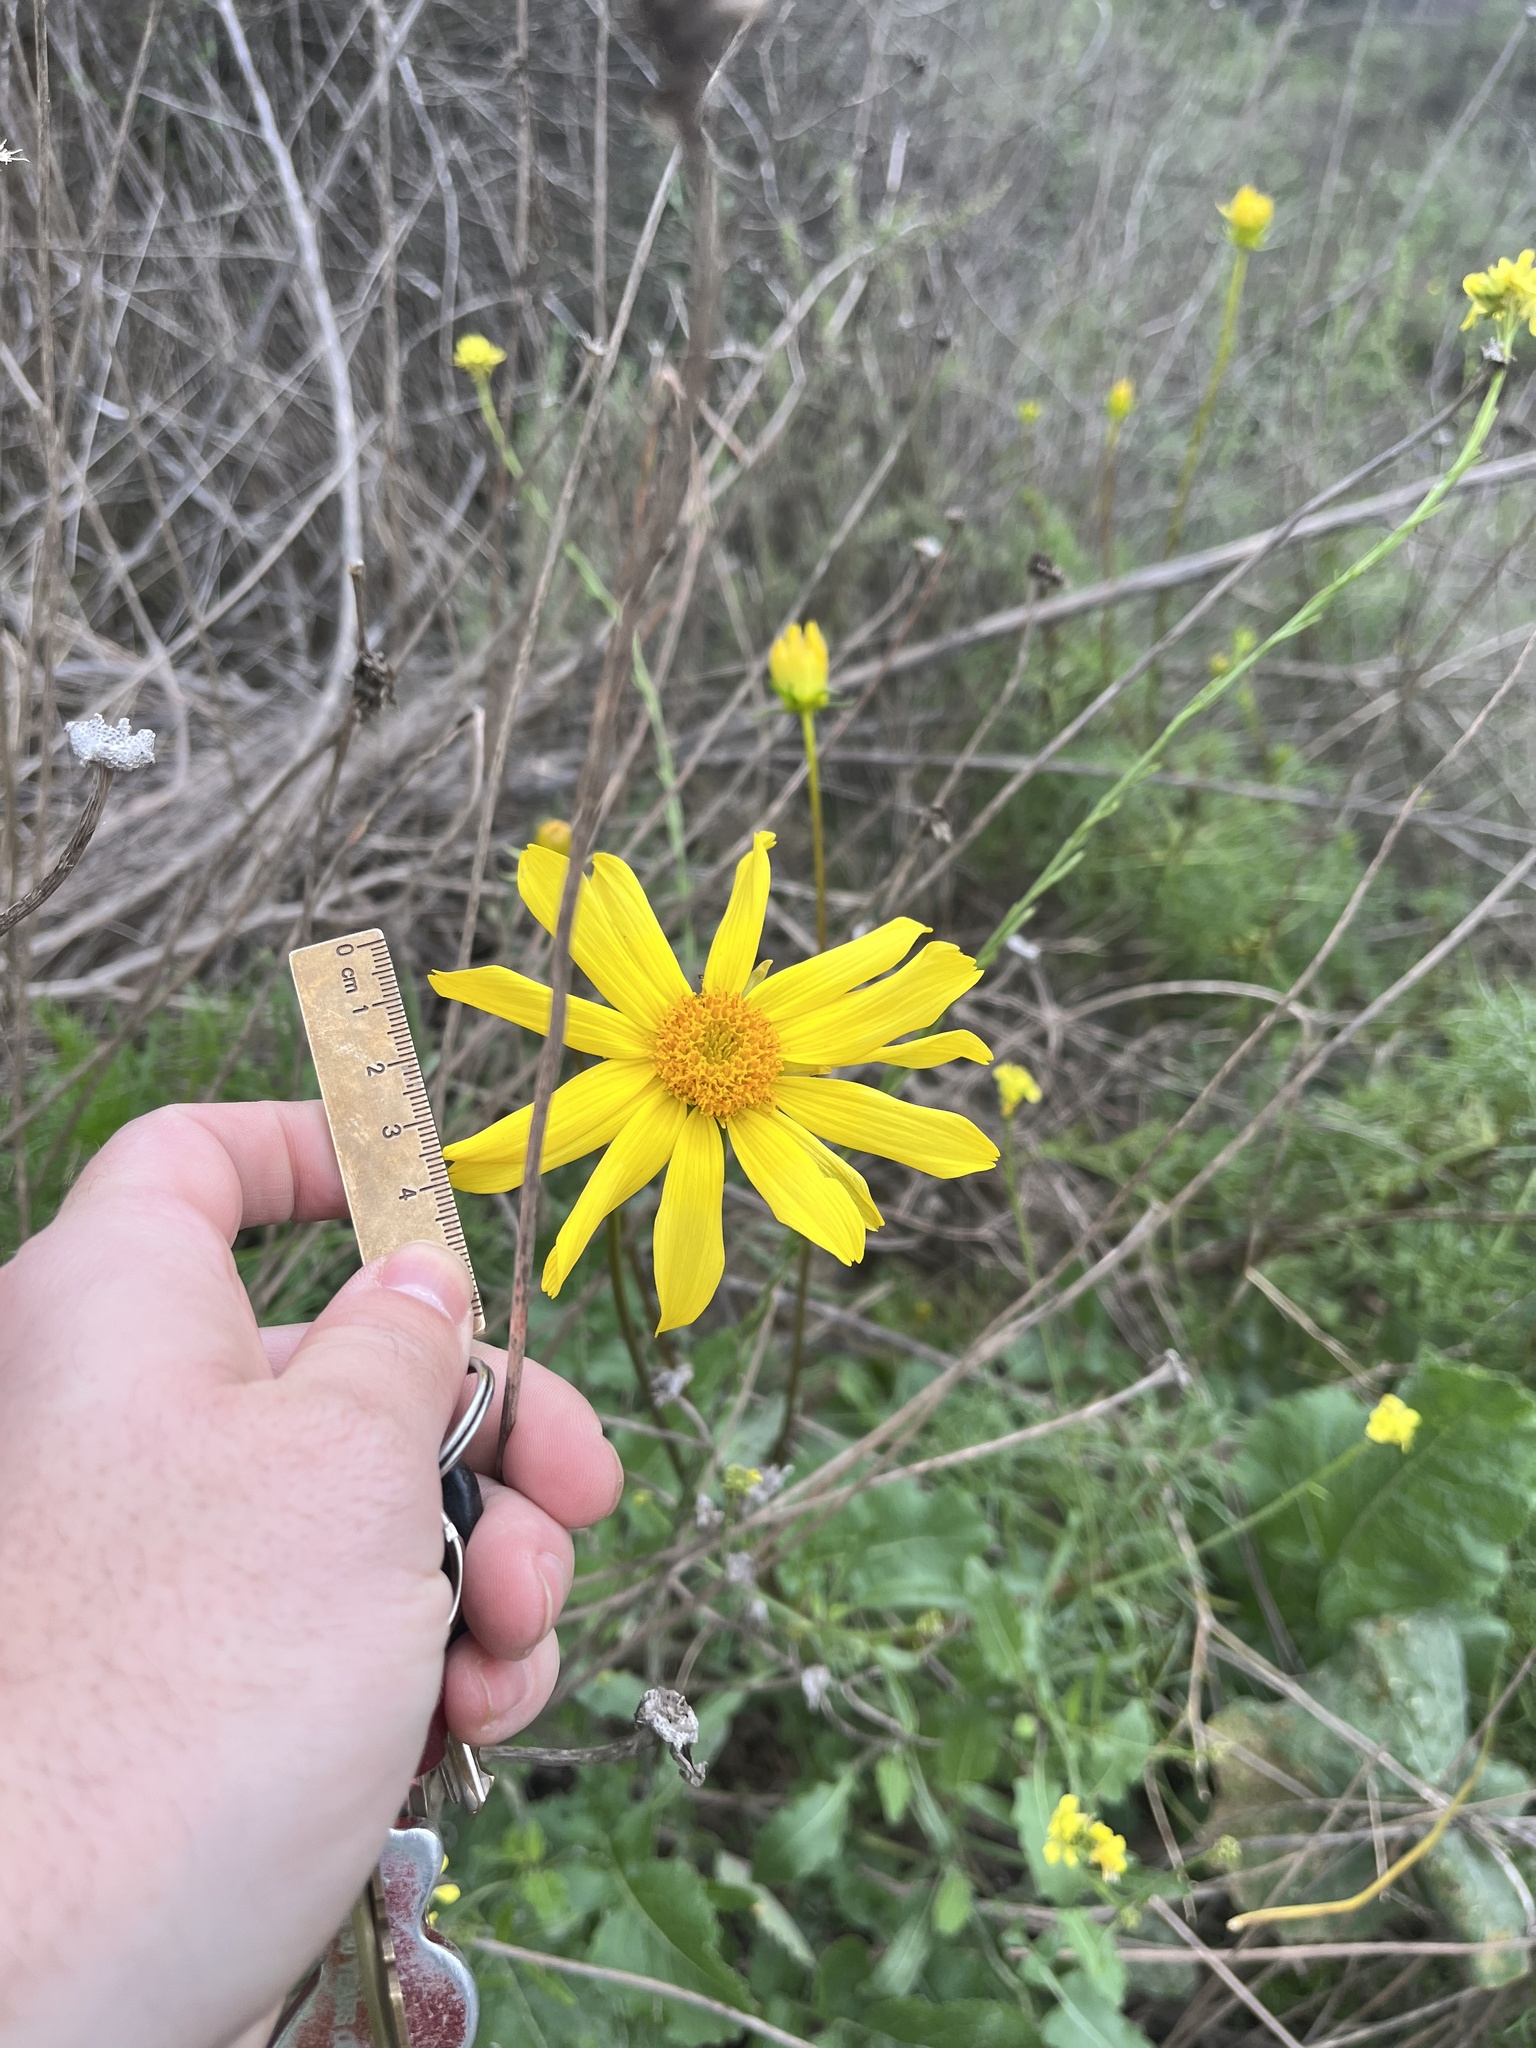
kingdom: Plantae
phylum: Tracheophyta
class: Magnoliopsida
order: Asterales
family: Asteraceae
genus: Coreopsis
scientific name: Coreopsis maritima
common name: Sea-dahlia
